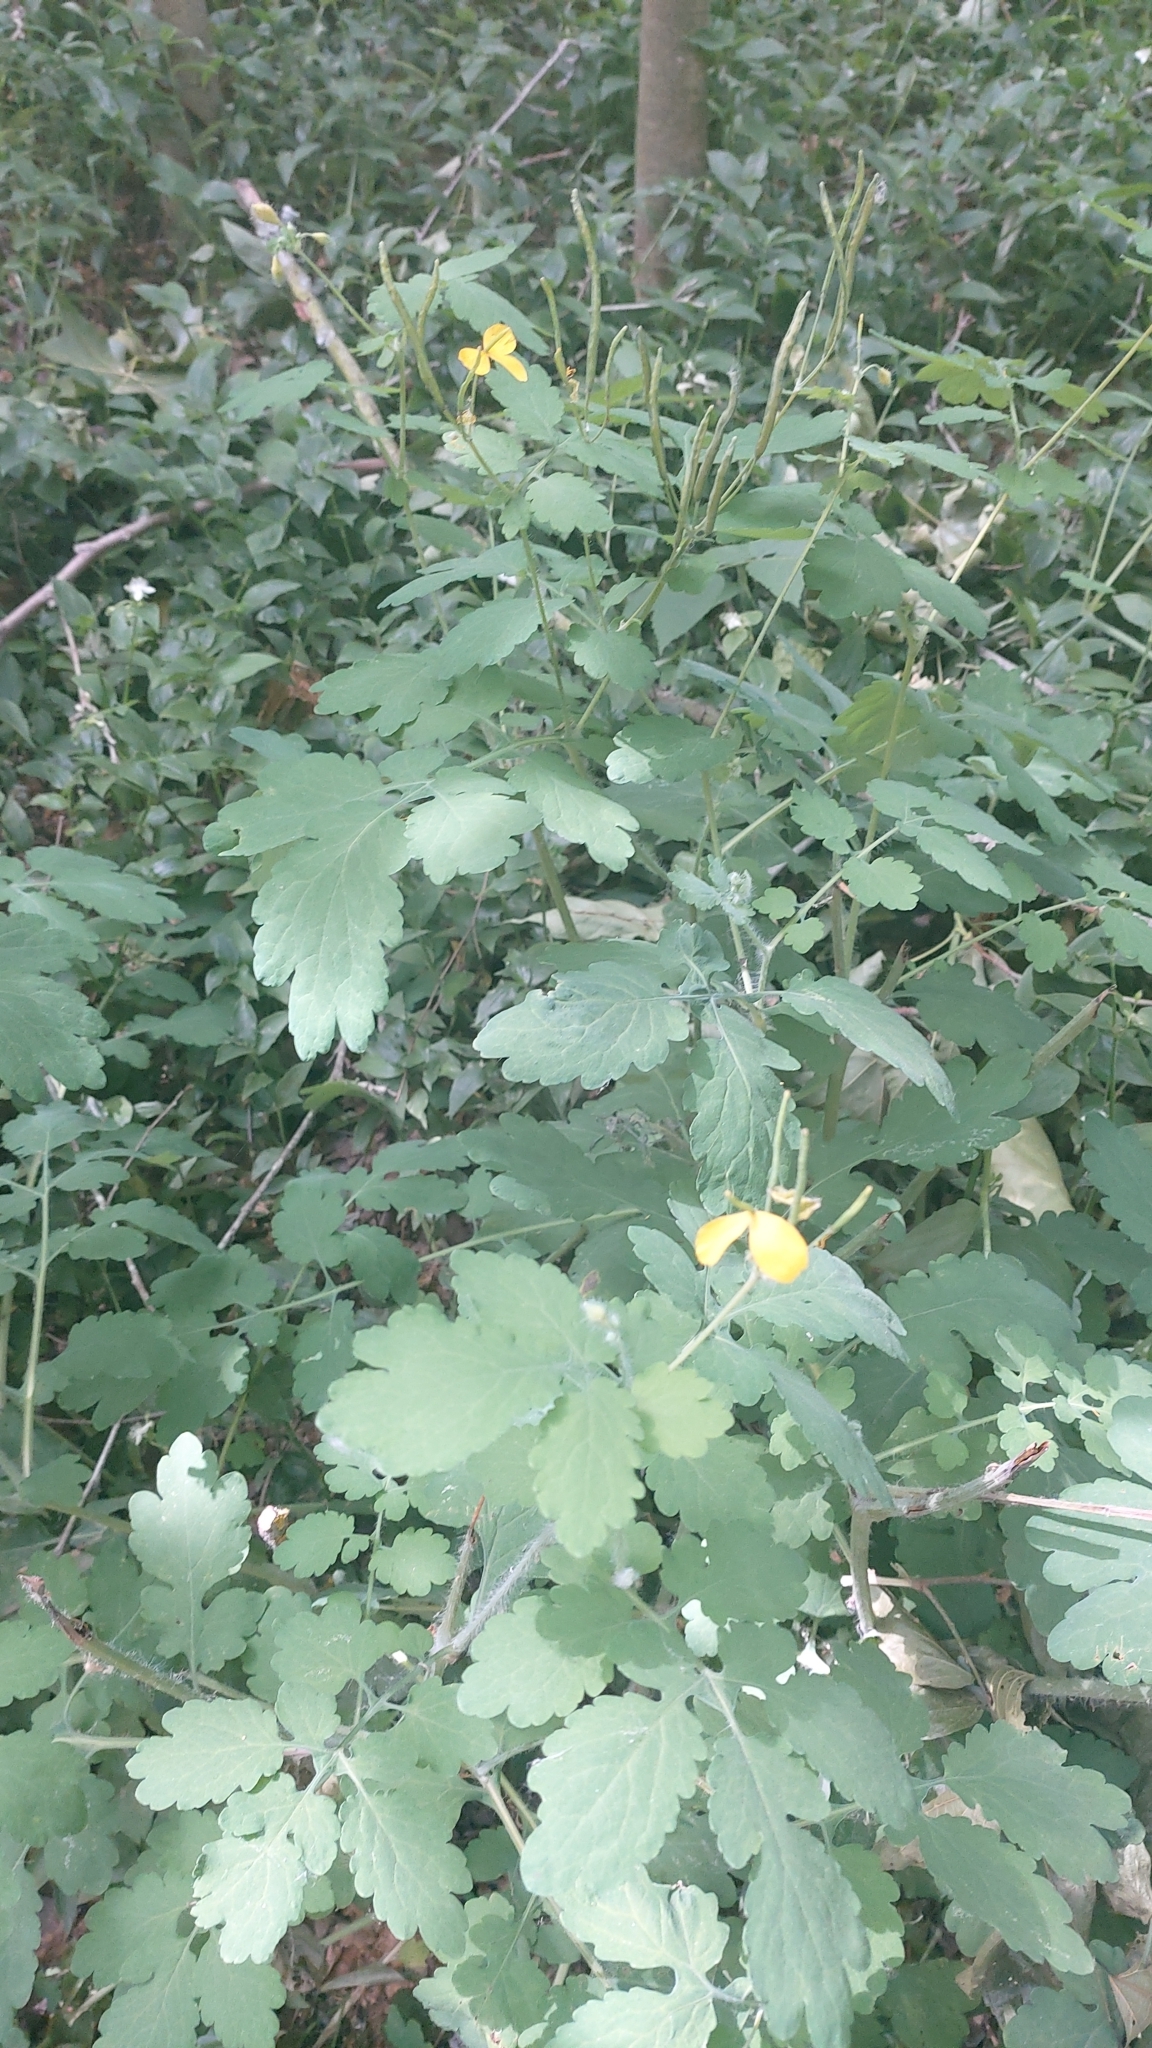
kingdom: Plantae
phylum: Tracheophyta
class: Magnoliopsida
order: Ranunculales
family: Papaveraceae
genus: Chelidonium
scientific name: Chelidonium majus
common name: Greater celandine
